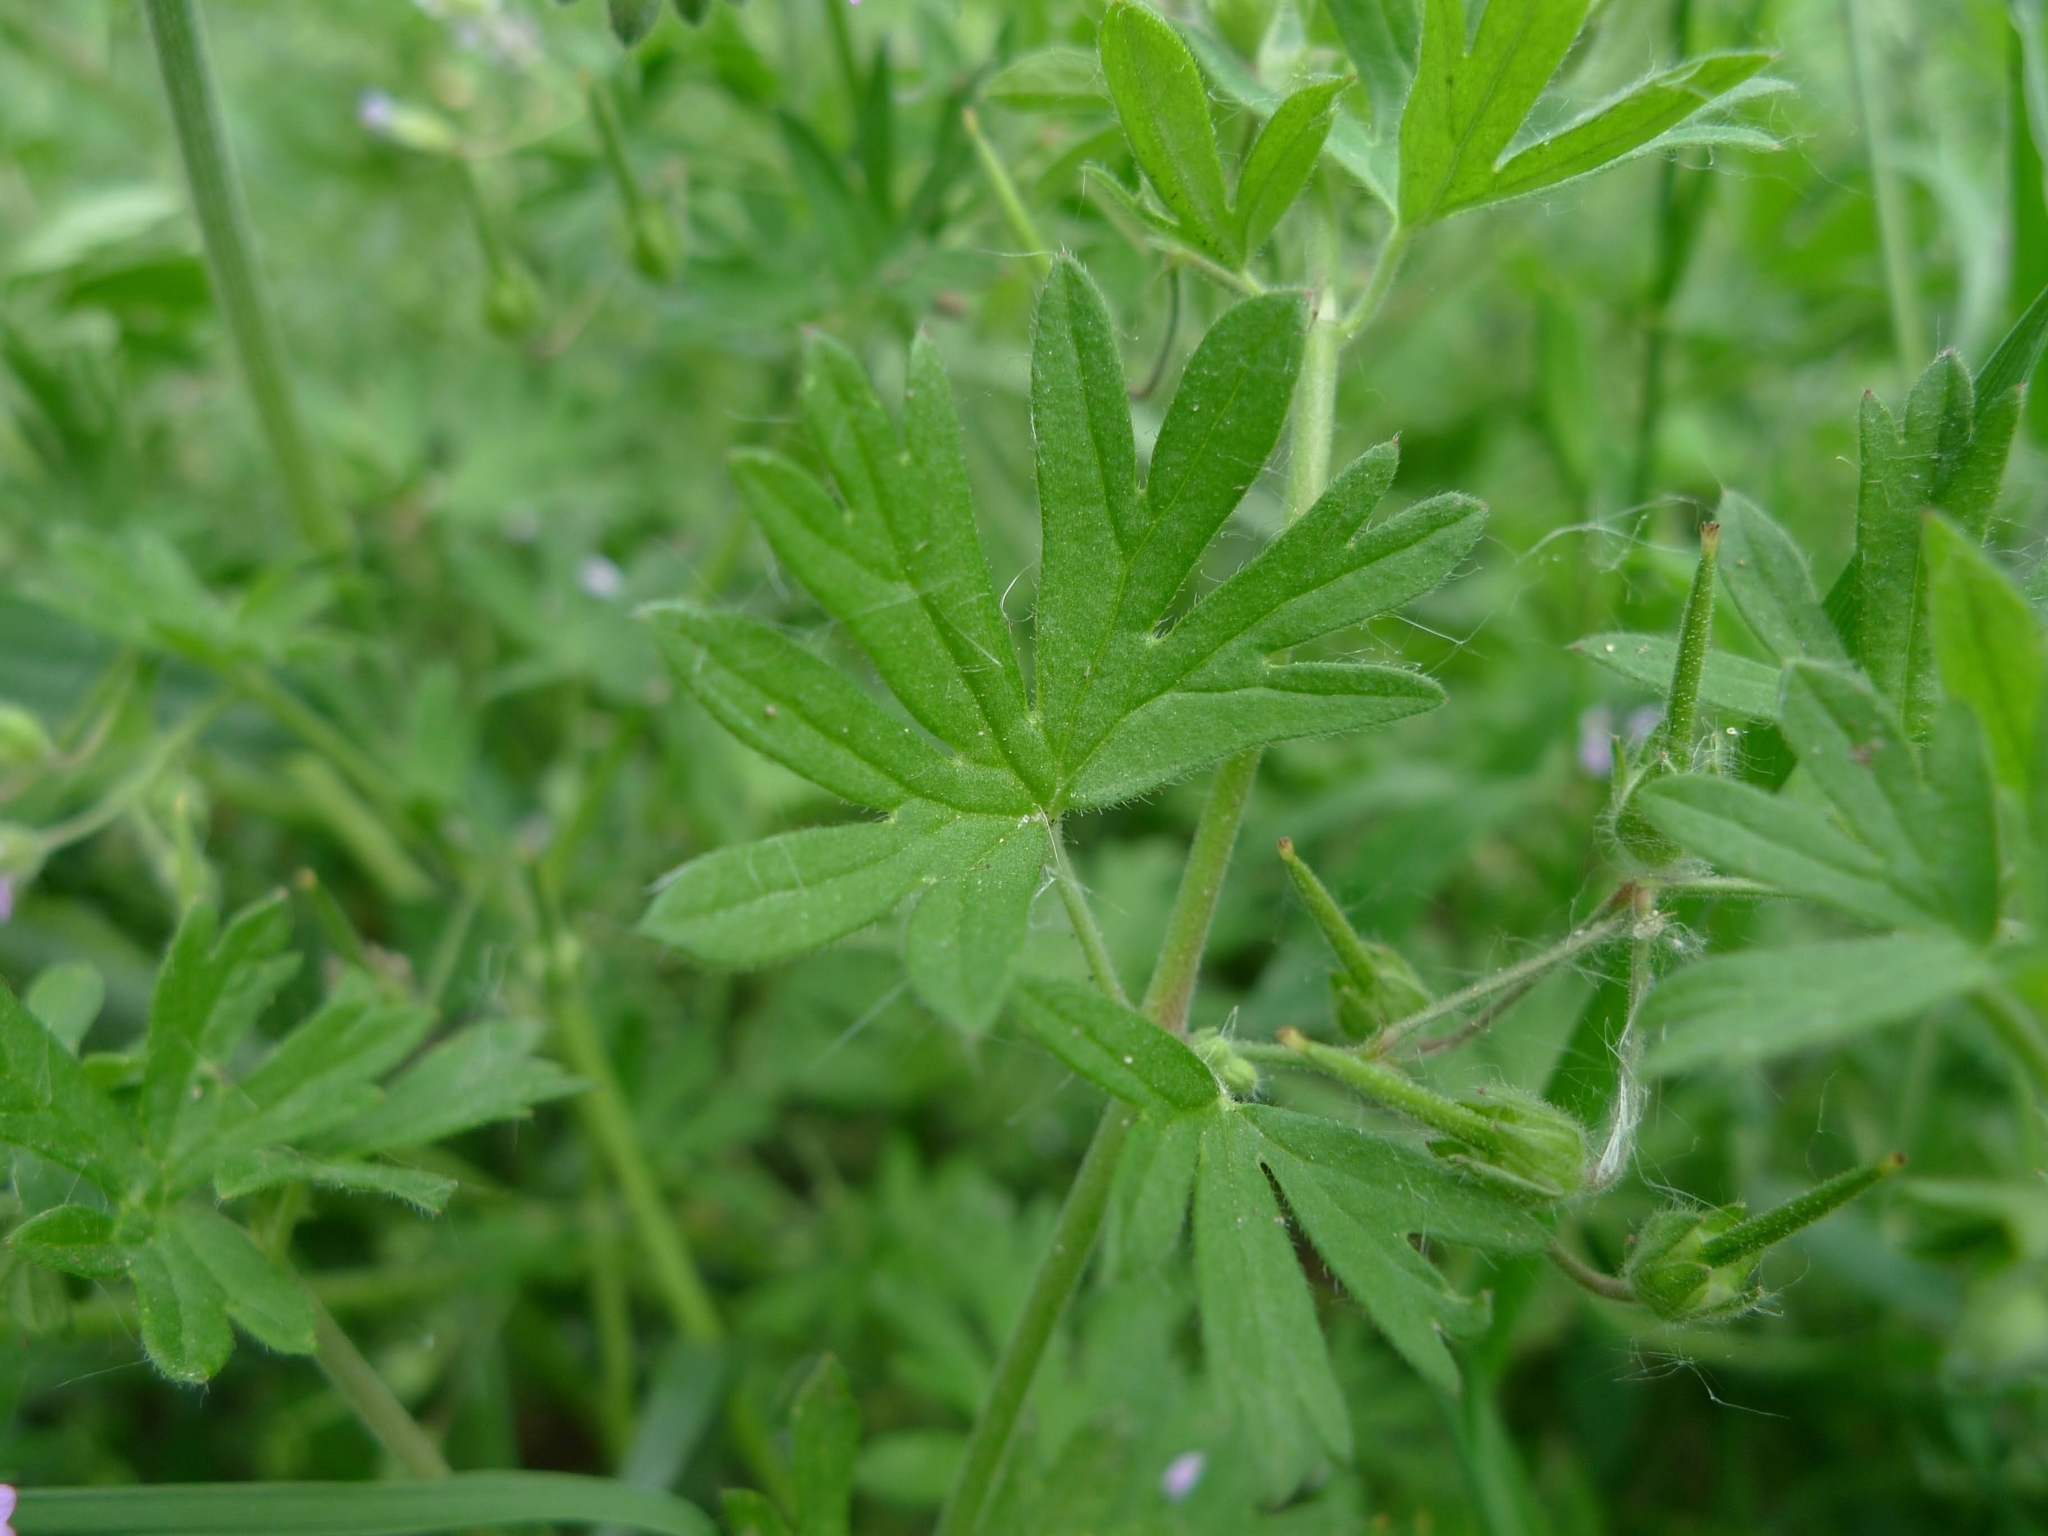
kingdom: Plantae
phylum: Tracheophyta
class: Magnoliopsida
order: Geraniales
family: Geraniaceae
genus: Geranium
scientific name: Geranium pusillum
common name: Small geranium
